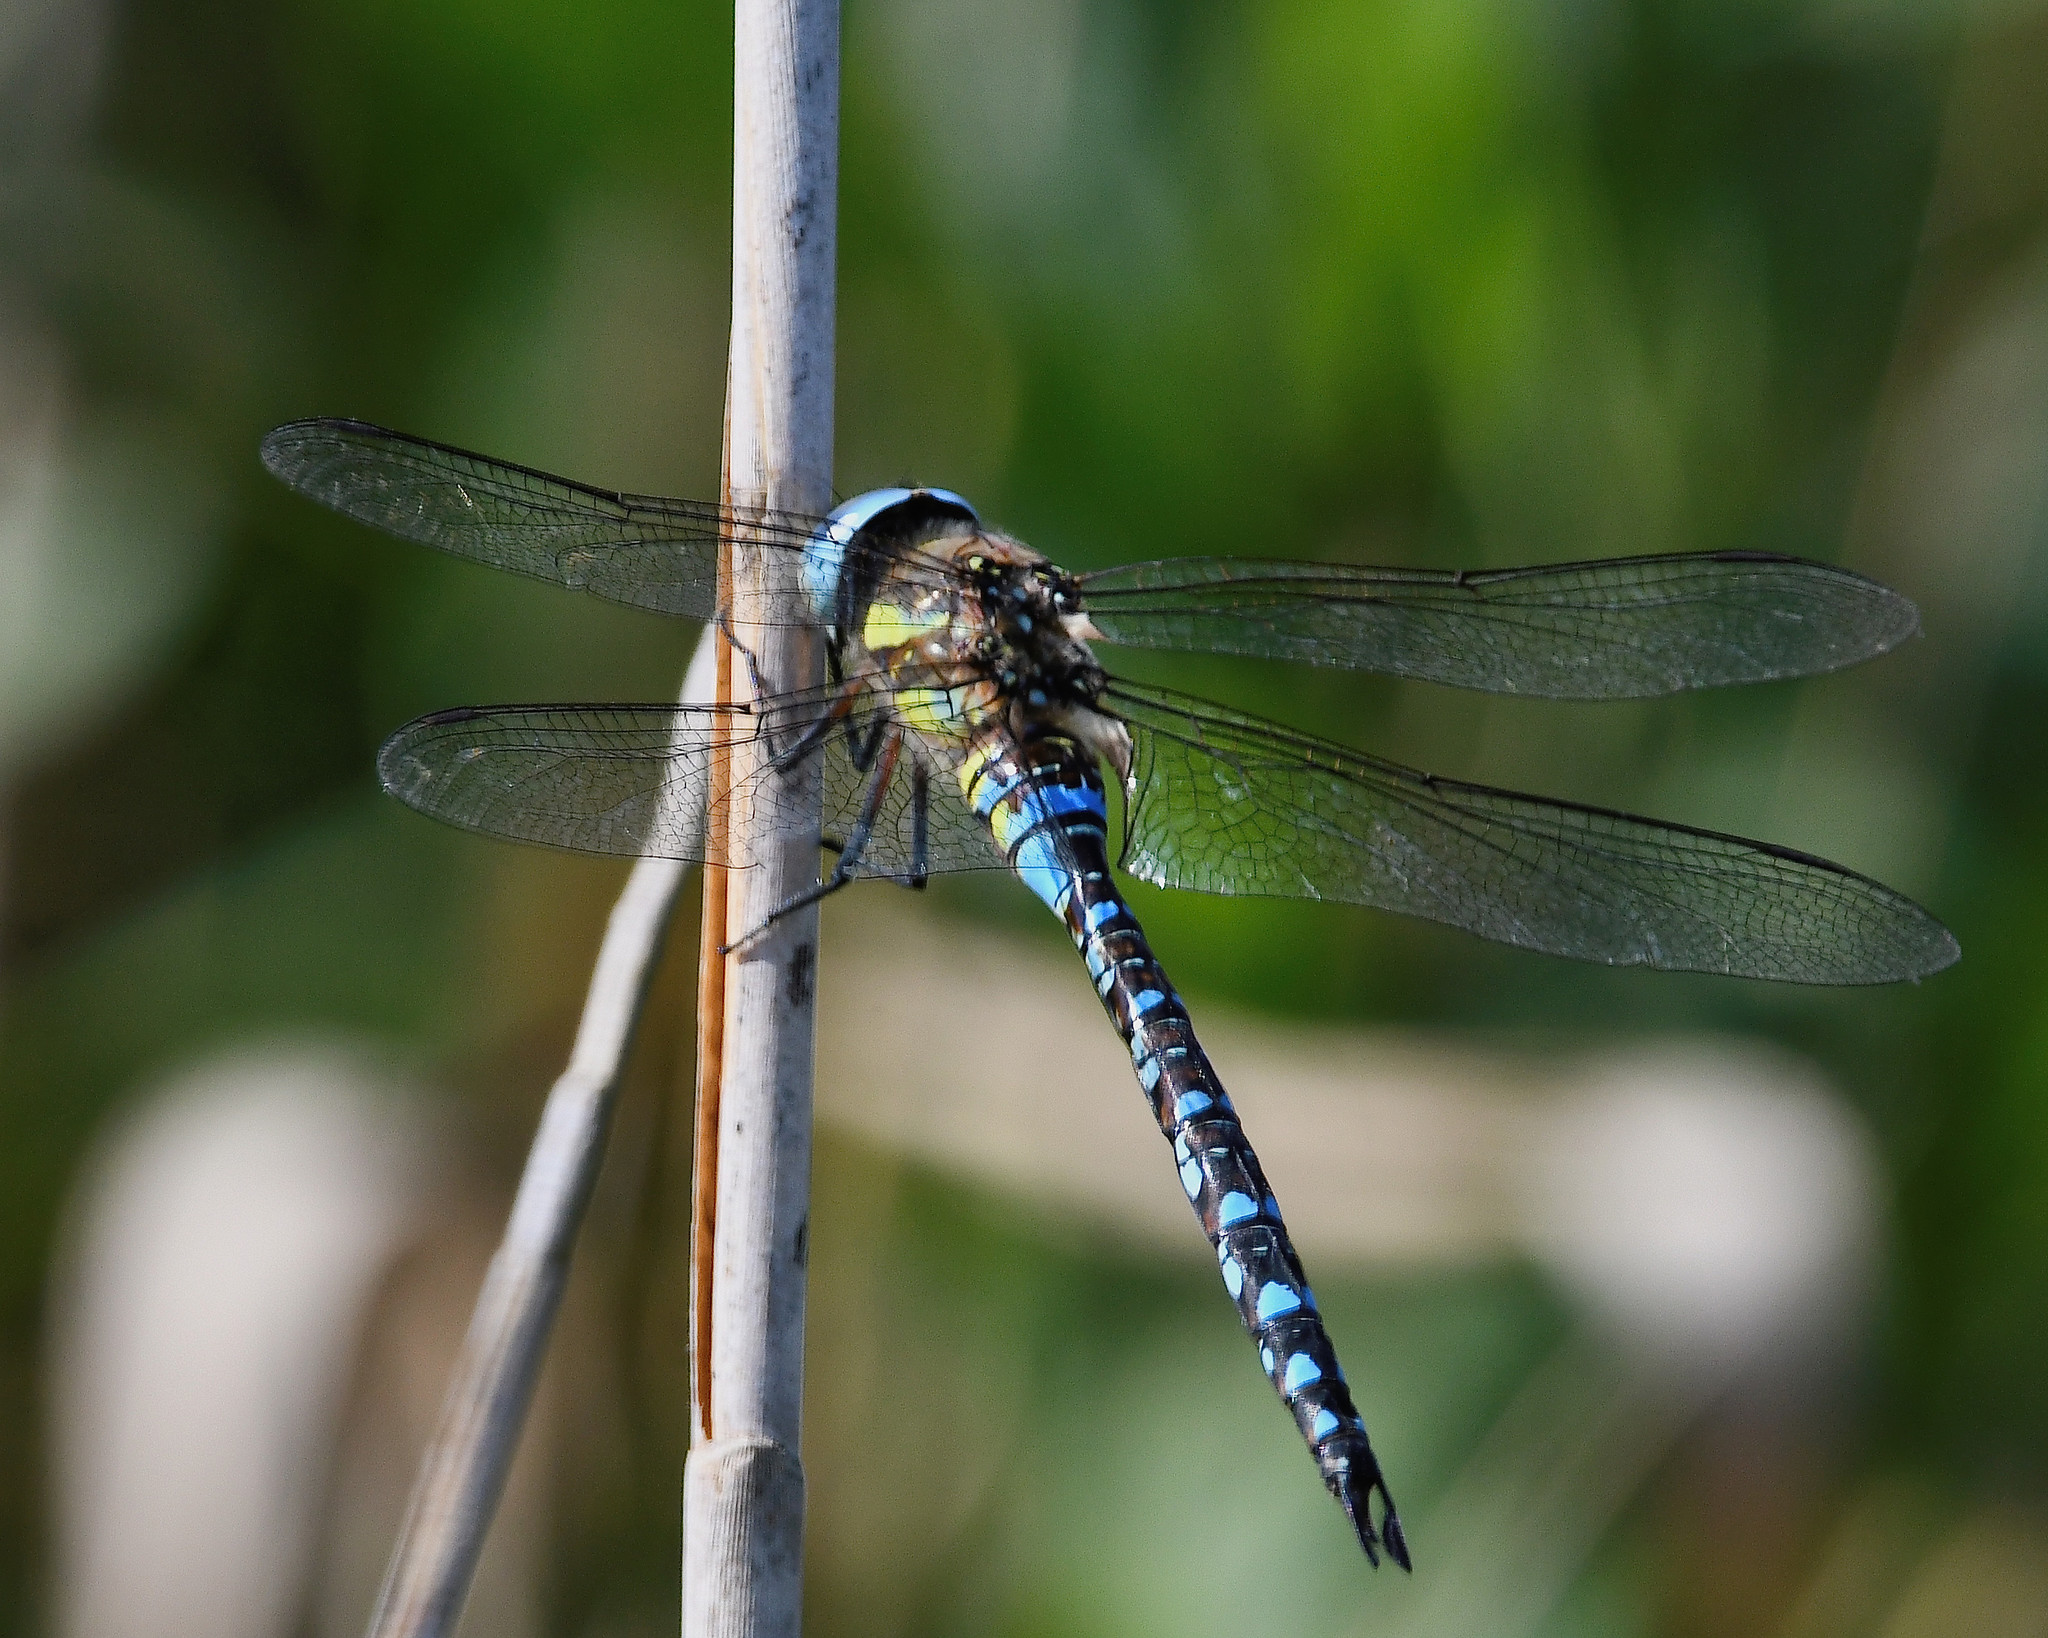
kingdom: Animalia
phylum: Arthropoda
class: Insecta
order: Odonata
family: Aeshnidae
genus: Aeshna
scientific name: Aeshna mixta
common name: Migrant hawker
